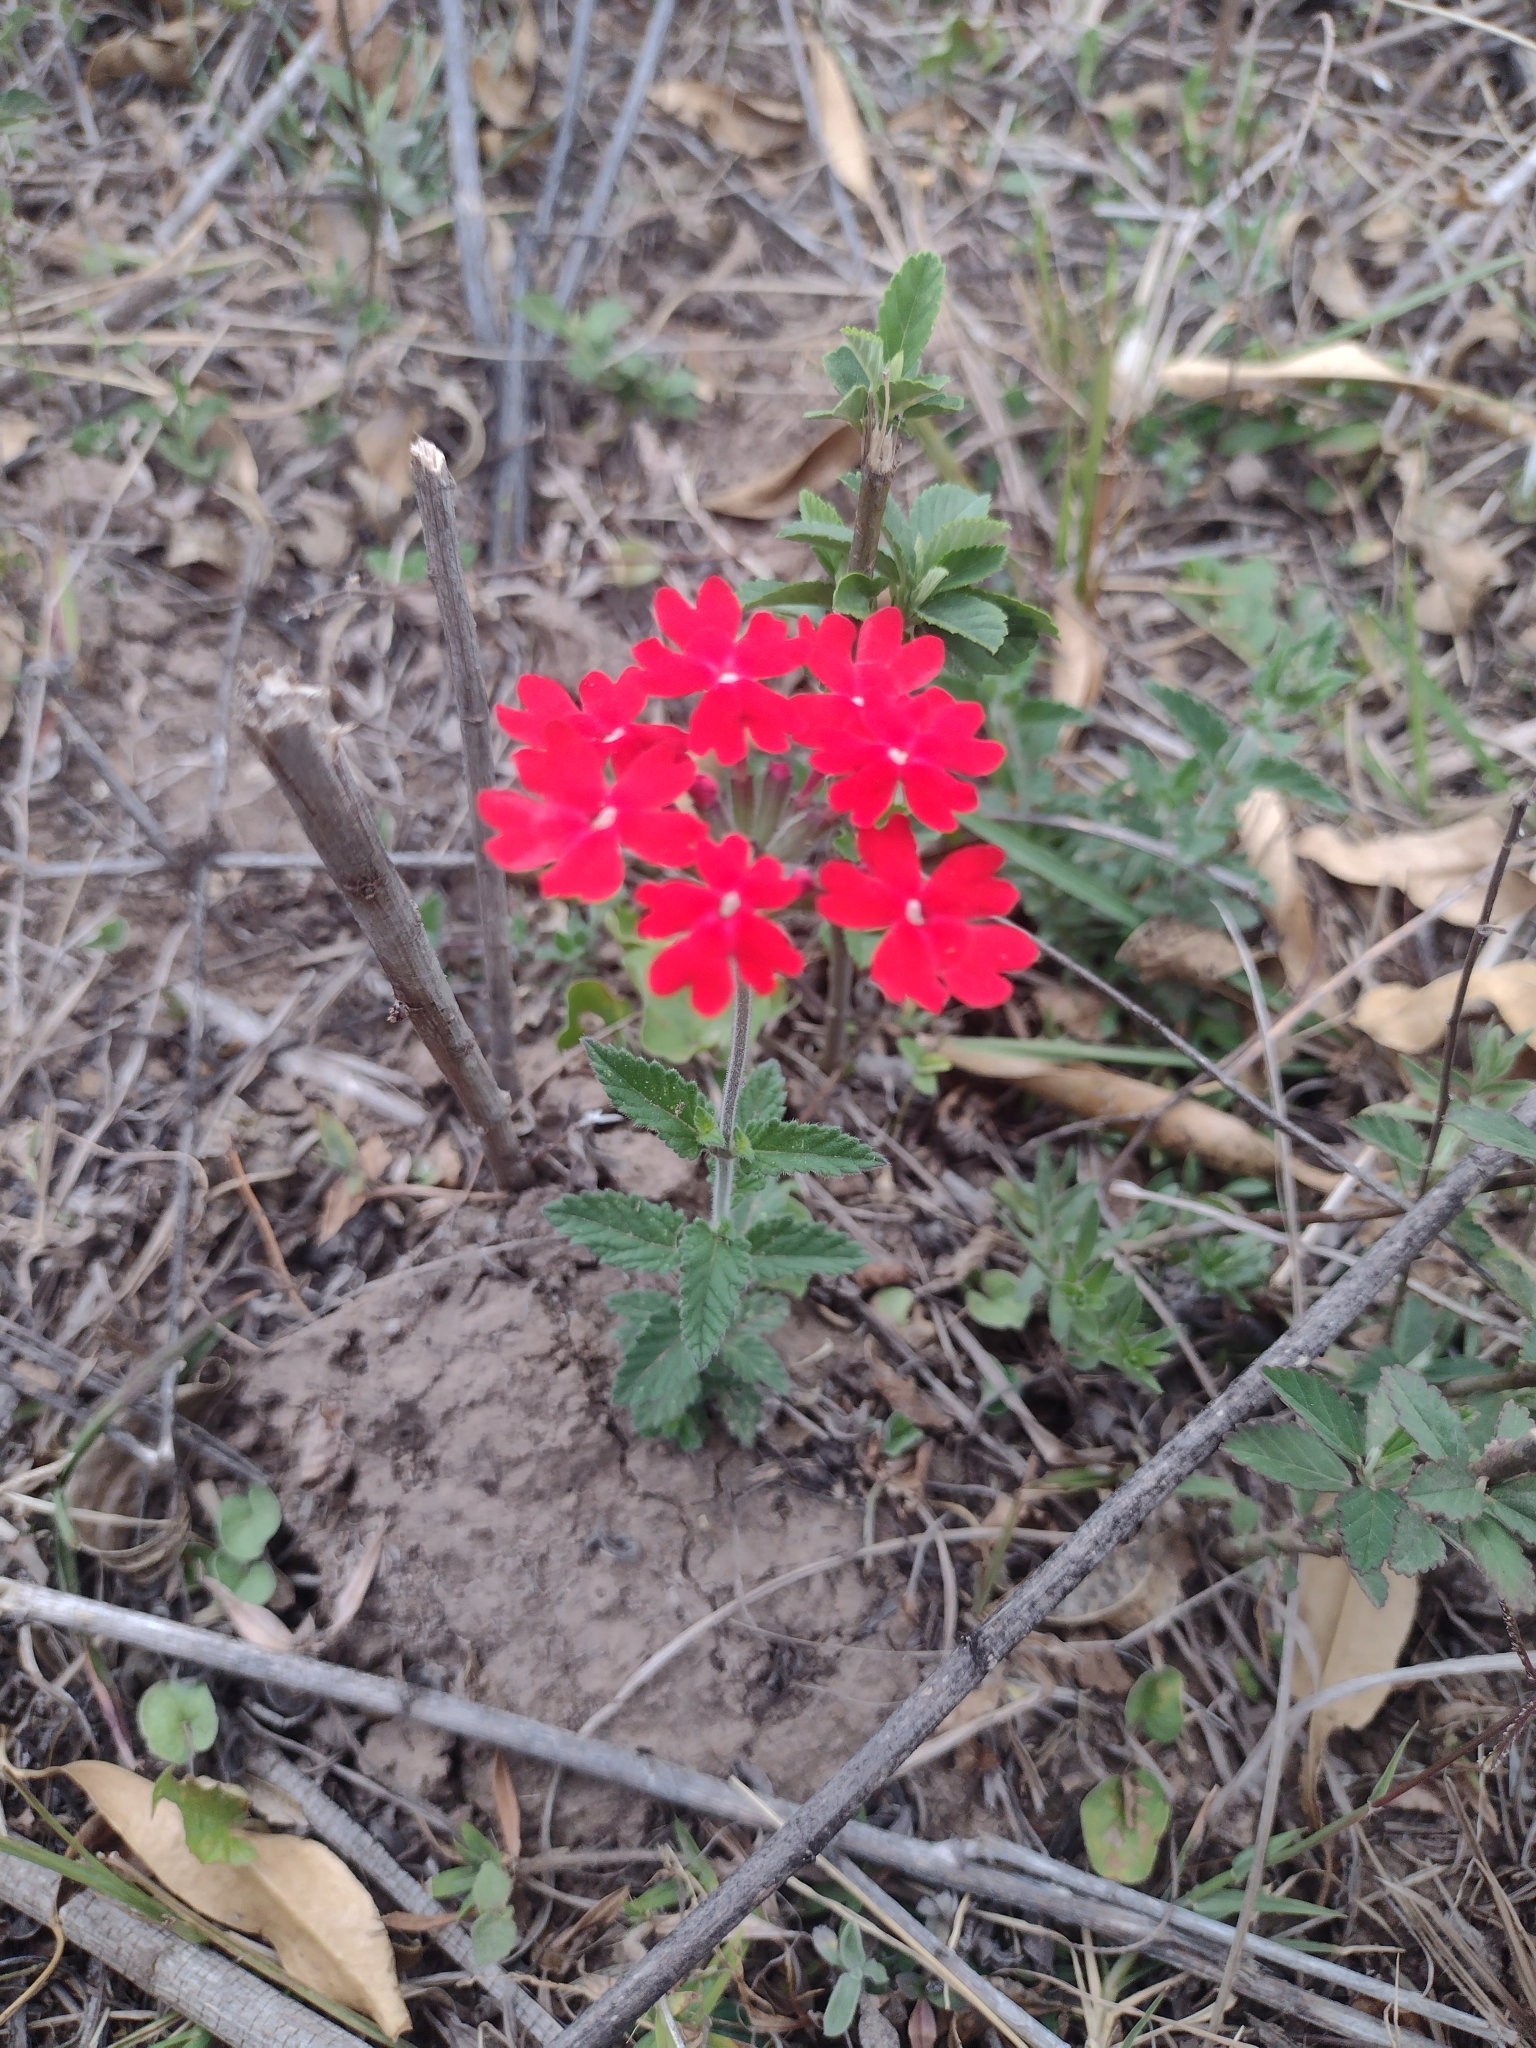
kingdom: Plantae
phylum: Tracheophyta
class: Magnoliopsida
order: Lamiales
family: Verbenaceae
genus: Verbena
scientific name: Verbena tweedieana
